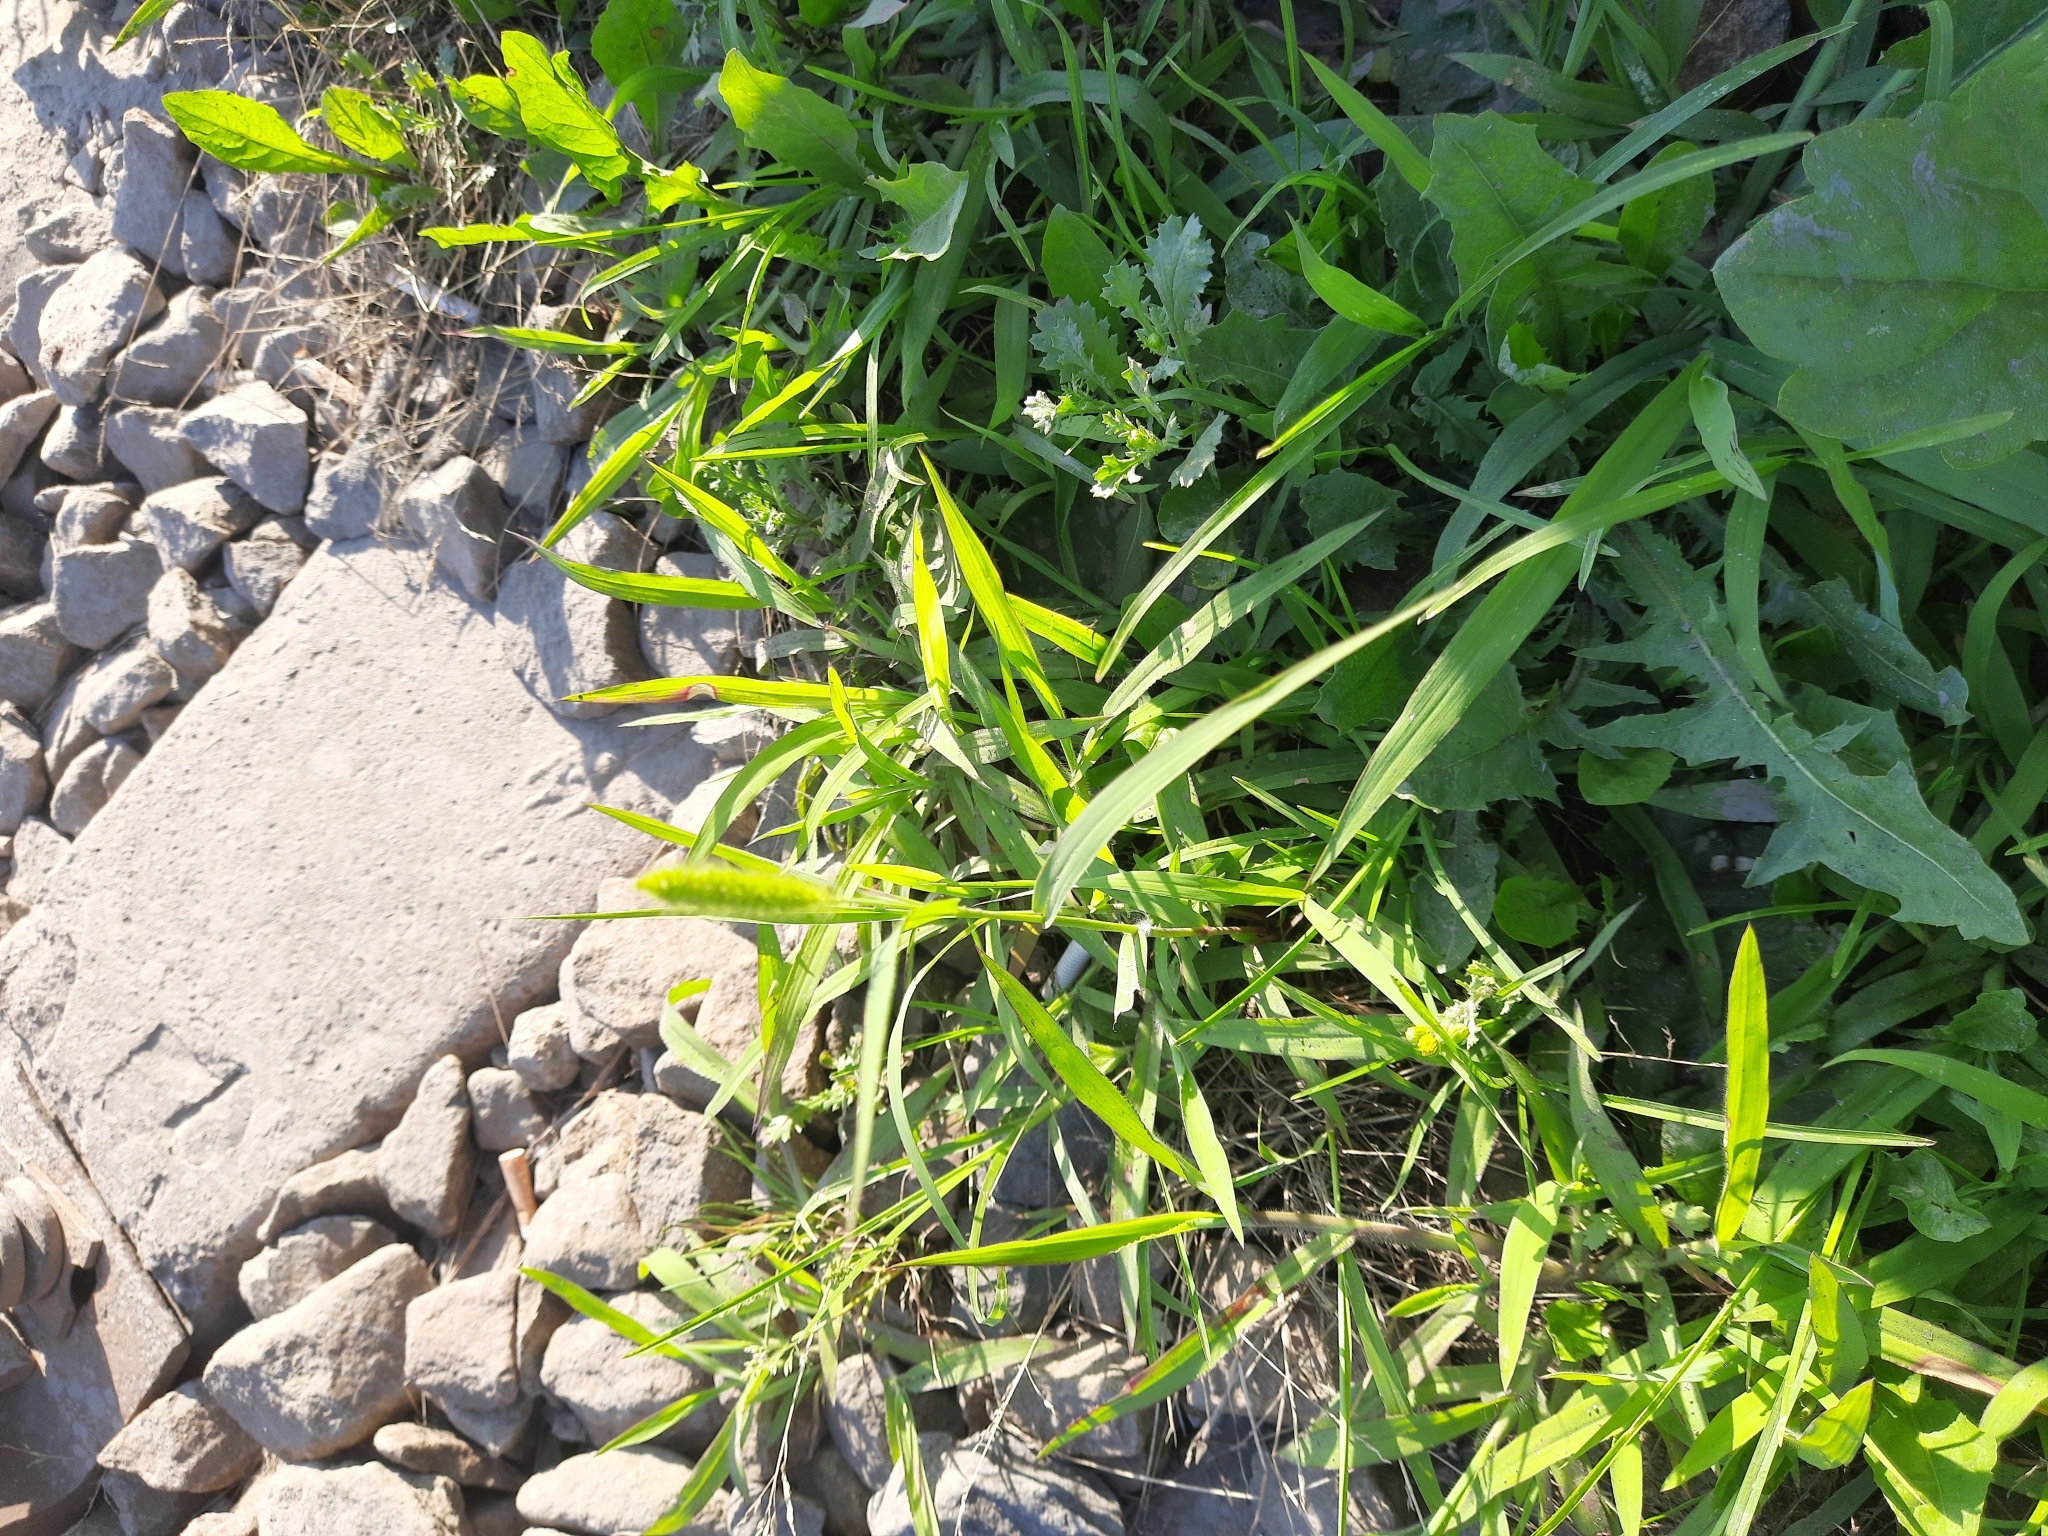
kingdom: Plantae
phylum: Tracheophyta
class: Liliopsida
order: Poales
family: Poaceae
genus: Setaria
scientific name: Setaria viridis
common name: Green bristlegrass
